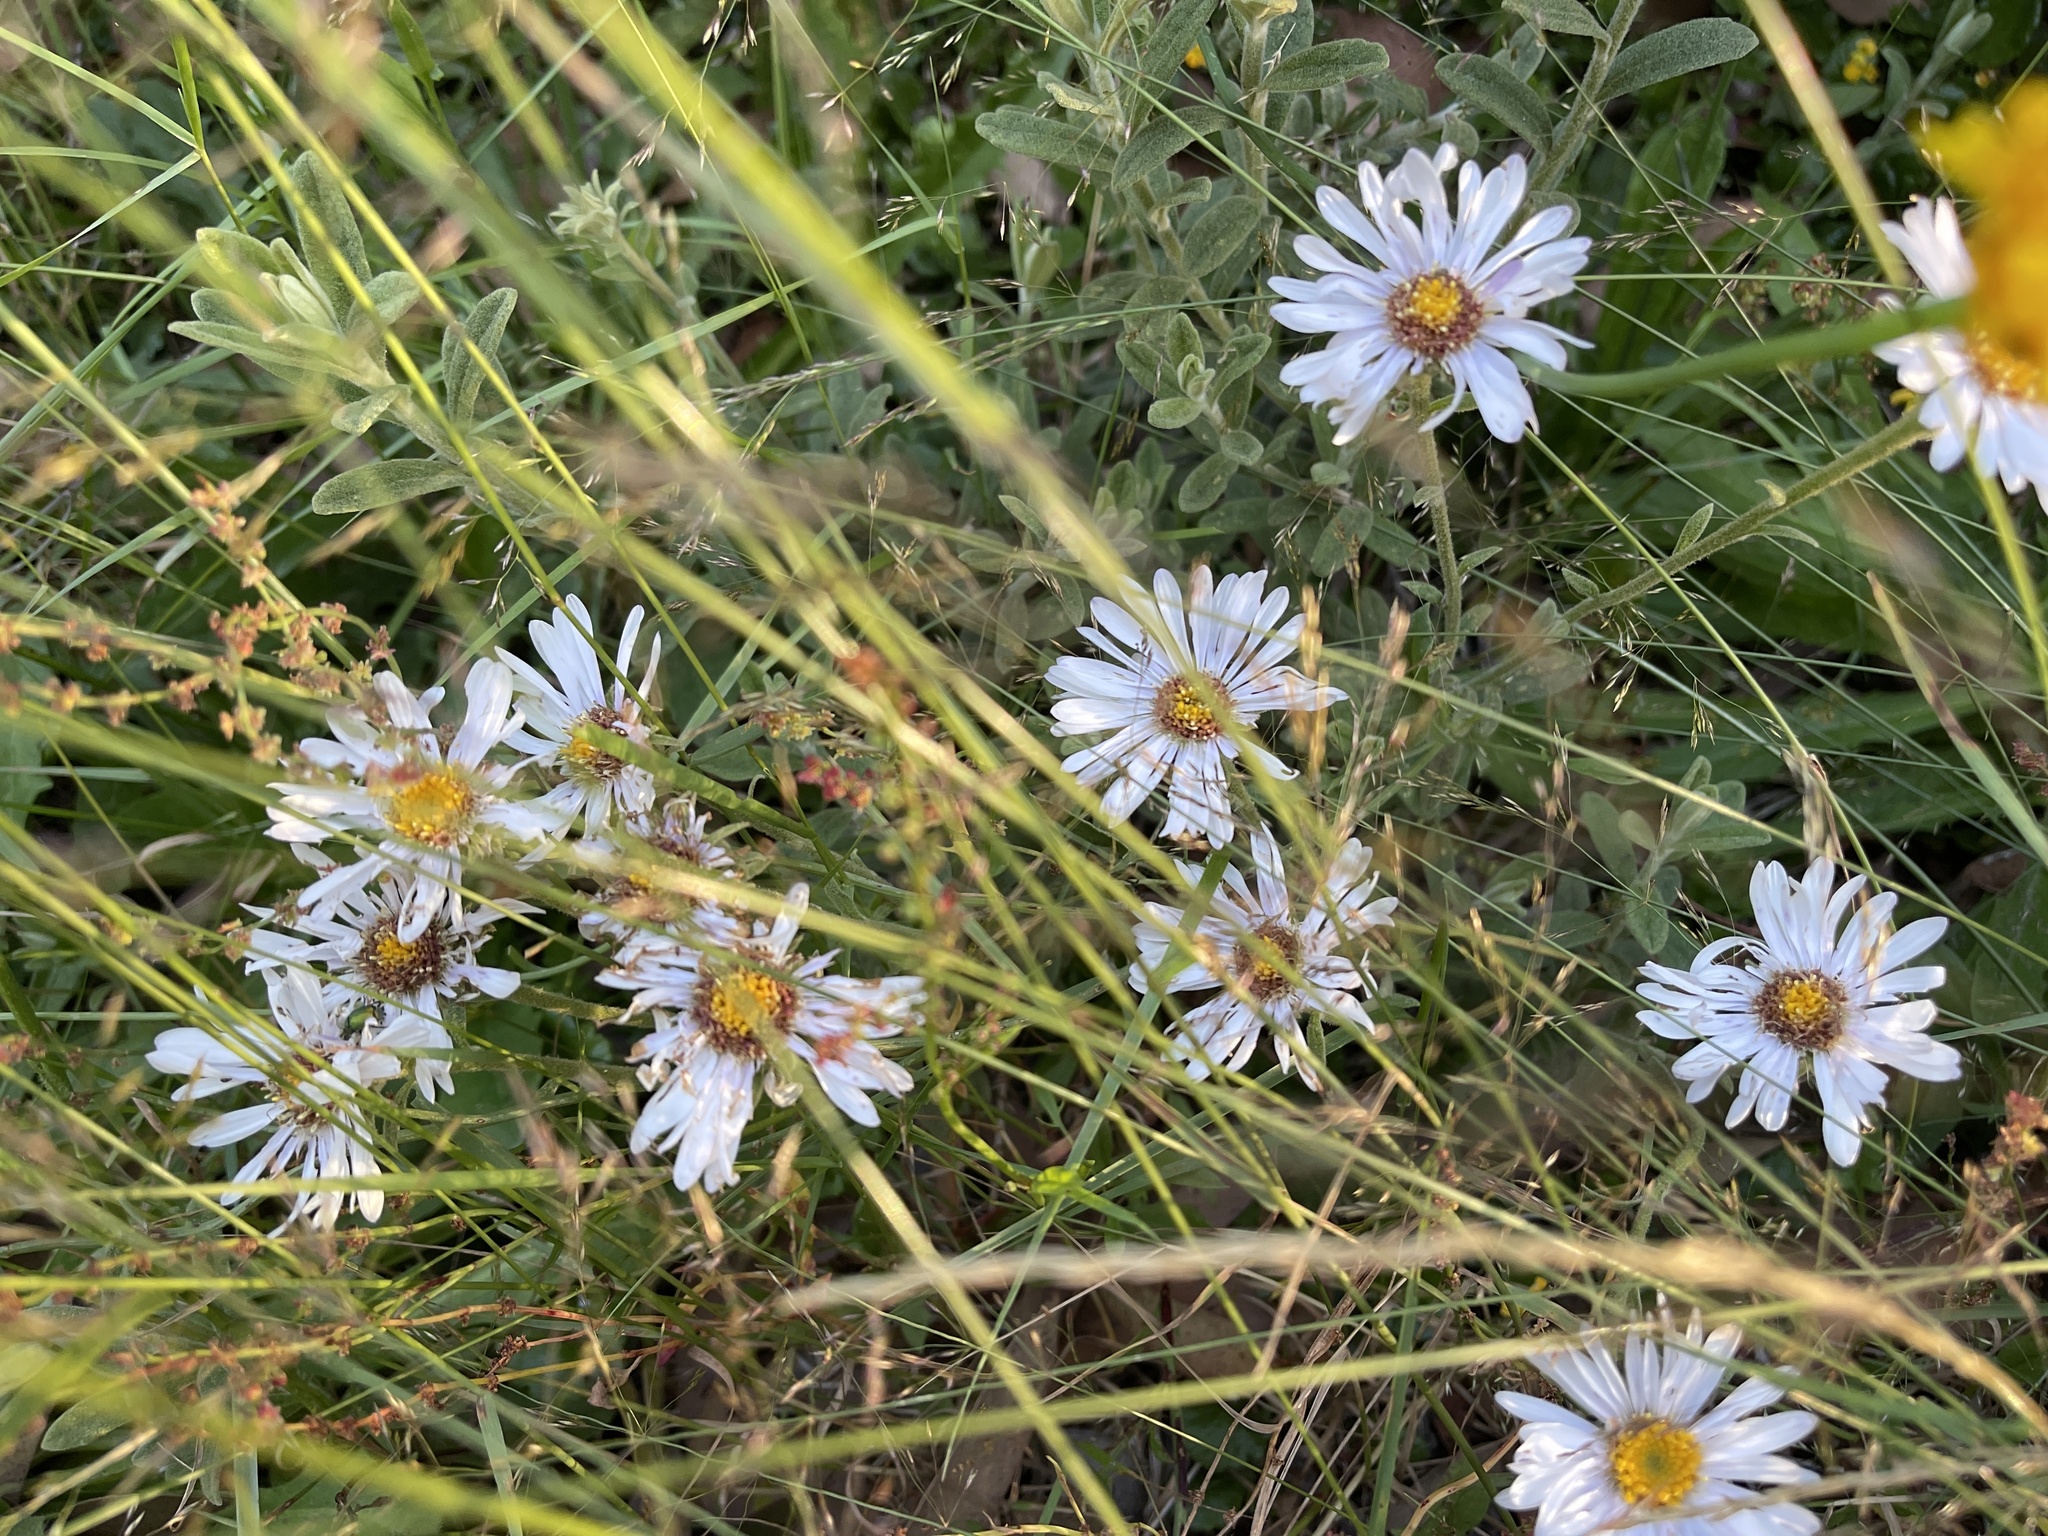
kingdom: Plantae
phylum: Tracheophyta
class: Magnoliopsida
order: Asterales
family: Asteraceae
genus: Olearia
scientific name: Olearia frostii
